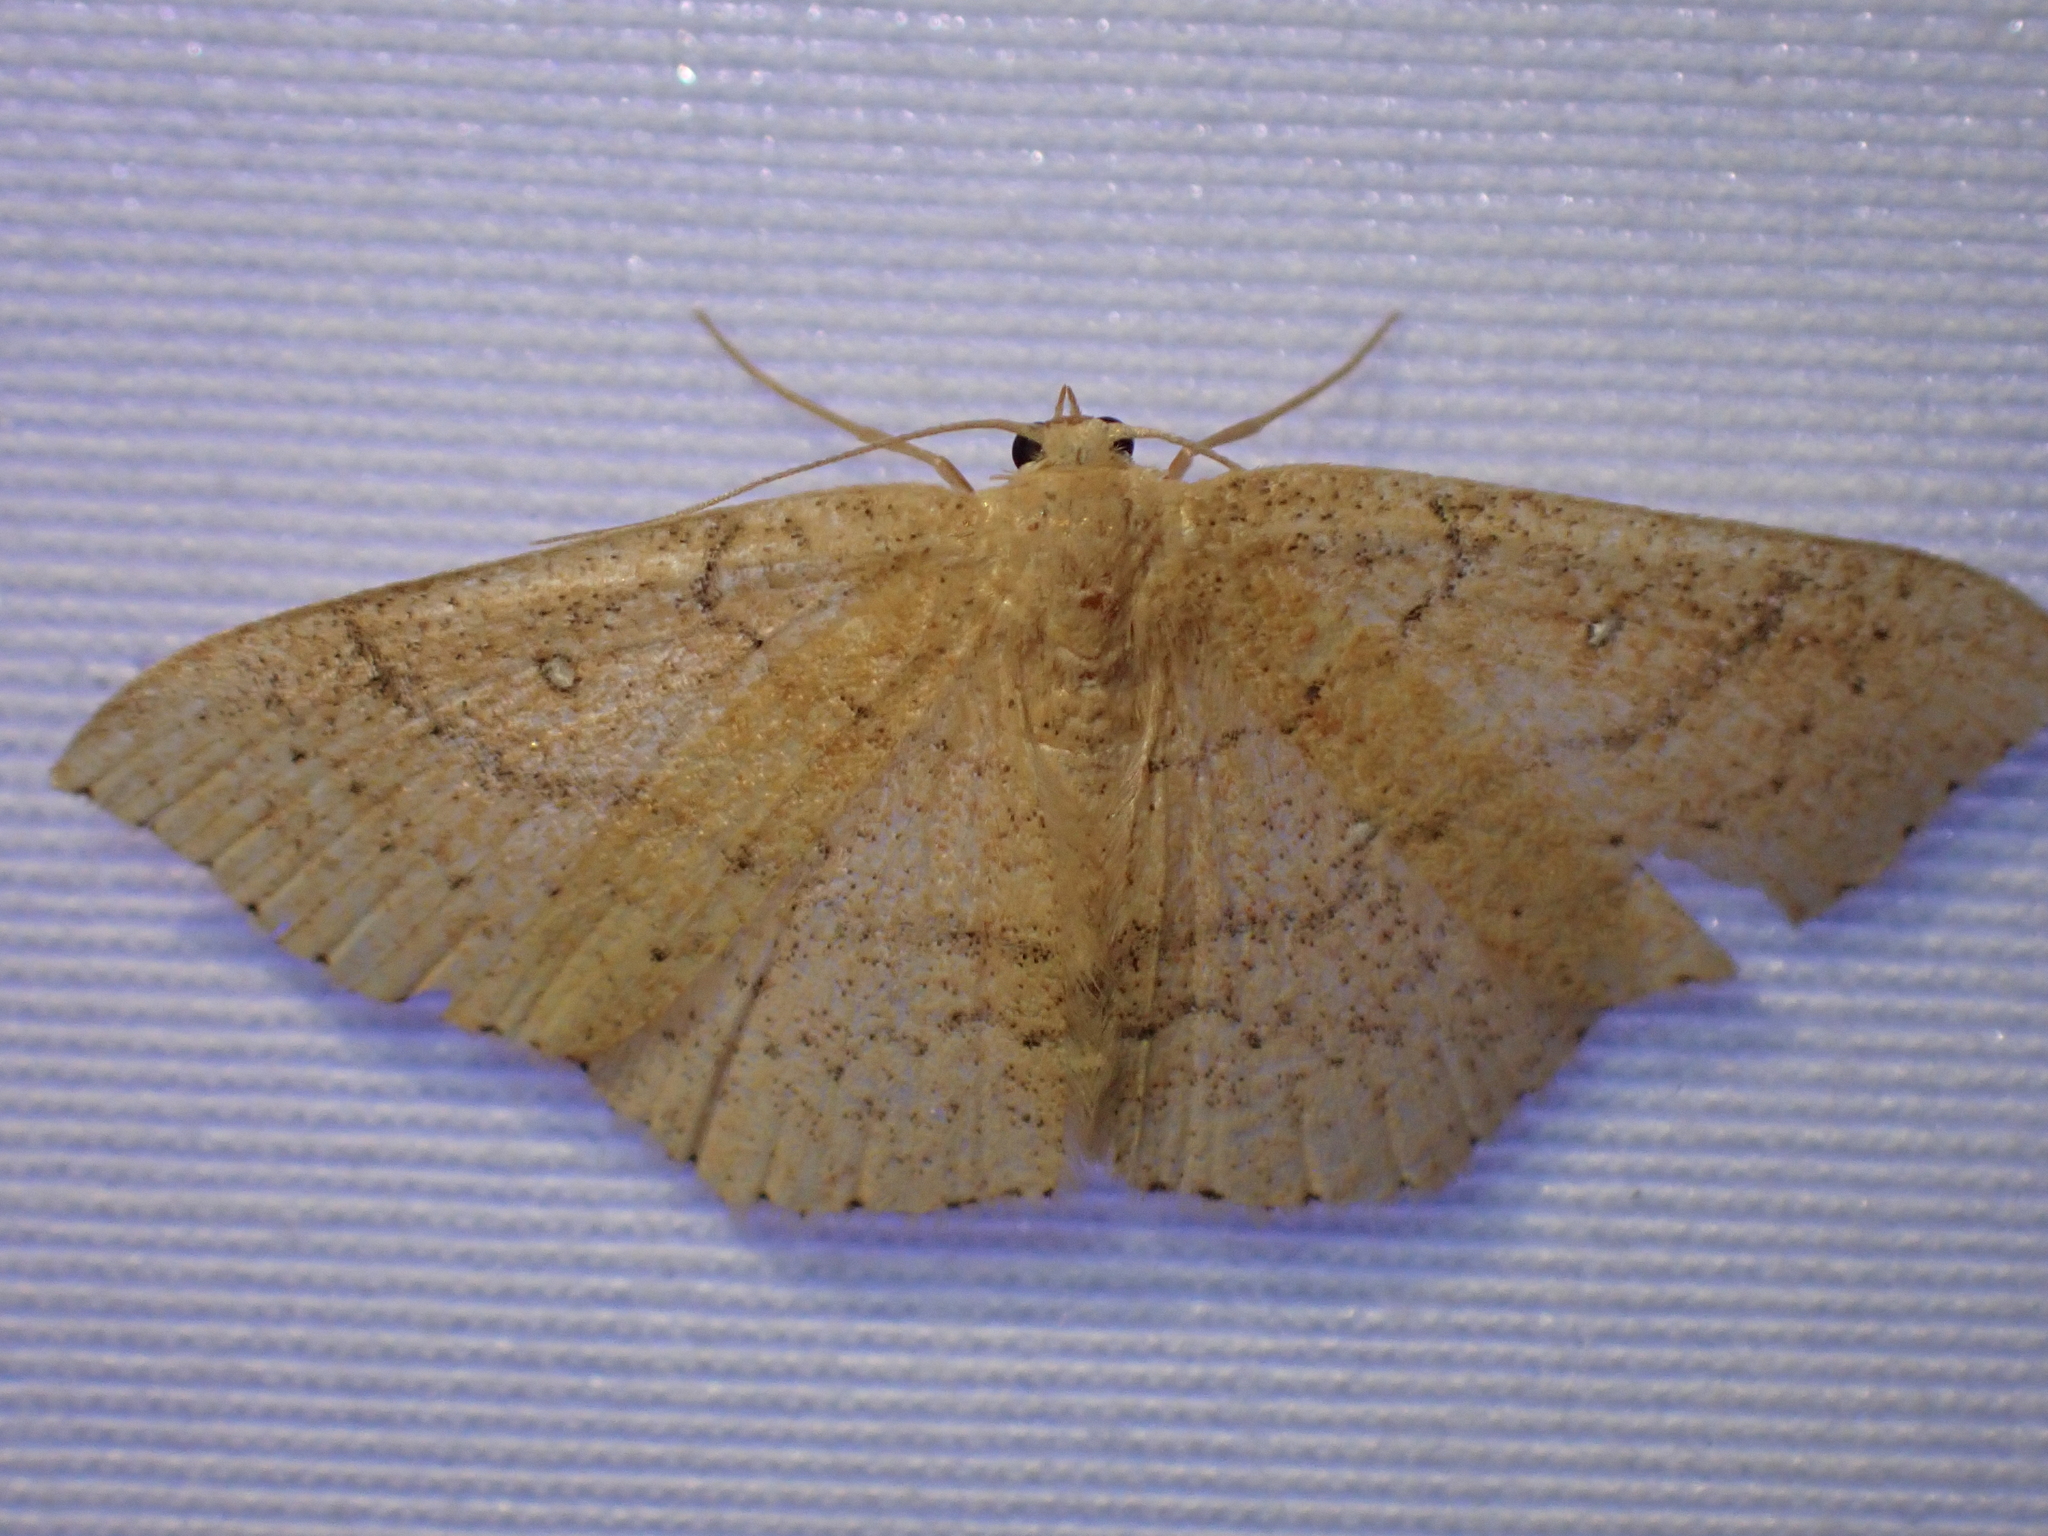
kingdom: Animalia
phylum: Arthropoda
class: Insecta
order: Lepidoptera
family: Geometridae
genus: Cyclophora
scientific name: Cyclophora dataria
